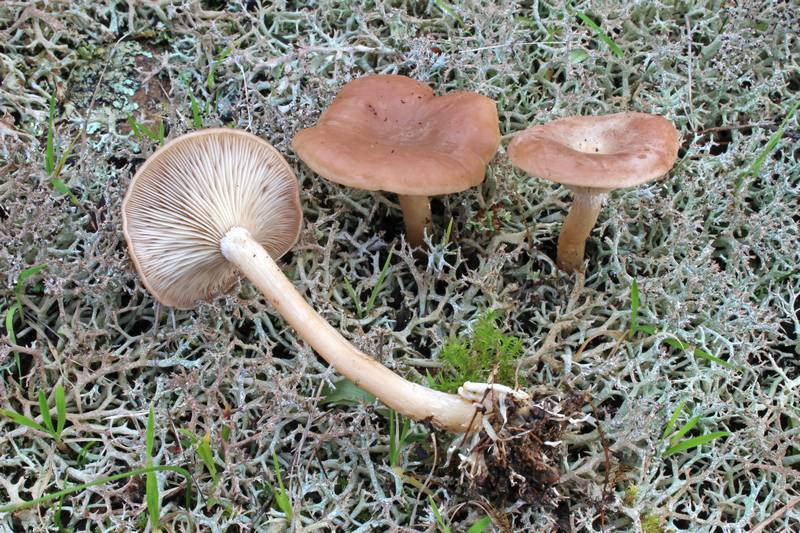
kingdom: Fungi
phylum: Basidiomycota
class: Agaricomycetes
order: Agaricales
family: Tricholomataceae
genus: Rhizocybe
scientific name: Rhizocybe vermicularis
